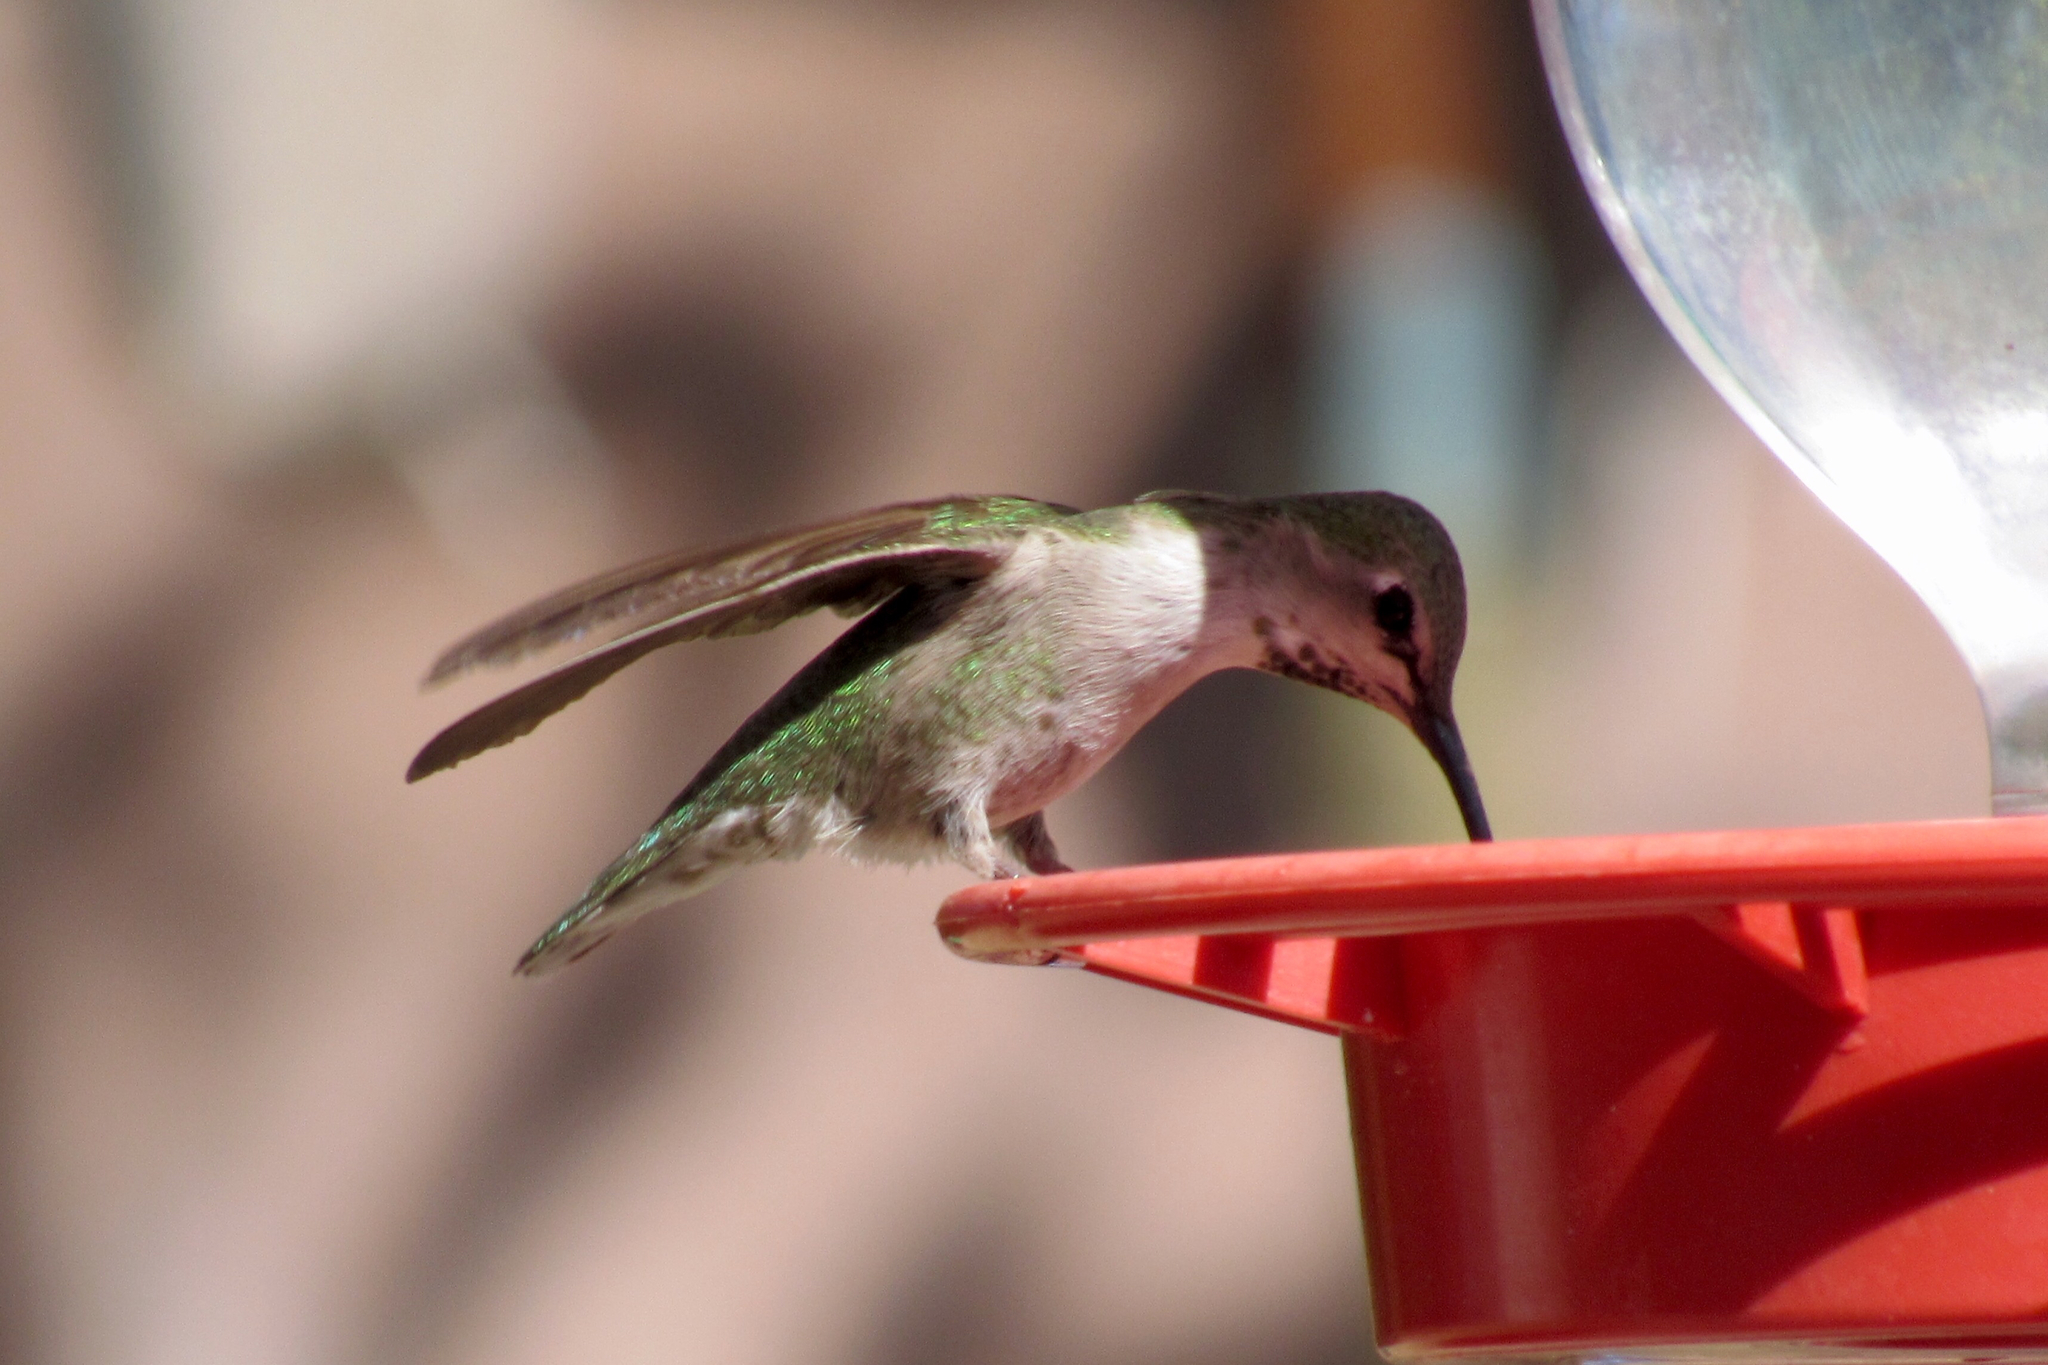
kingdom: Animalia
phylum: Chordata
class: Aves
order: Apodiformes
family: Trochilidae
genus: Calypte
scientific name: Calypte costae
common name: Costa's hummingbird
